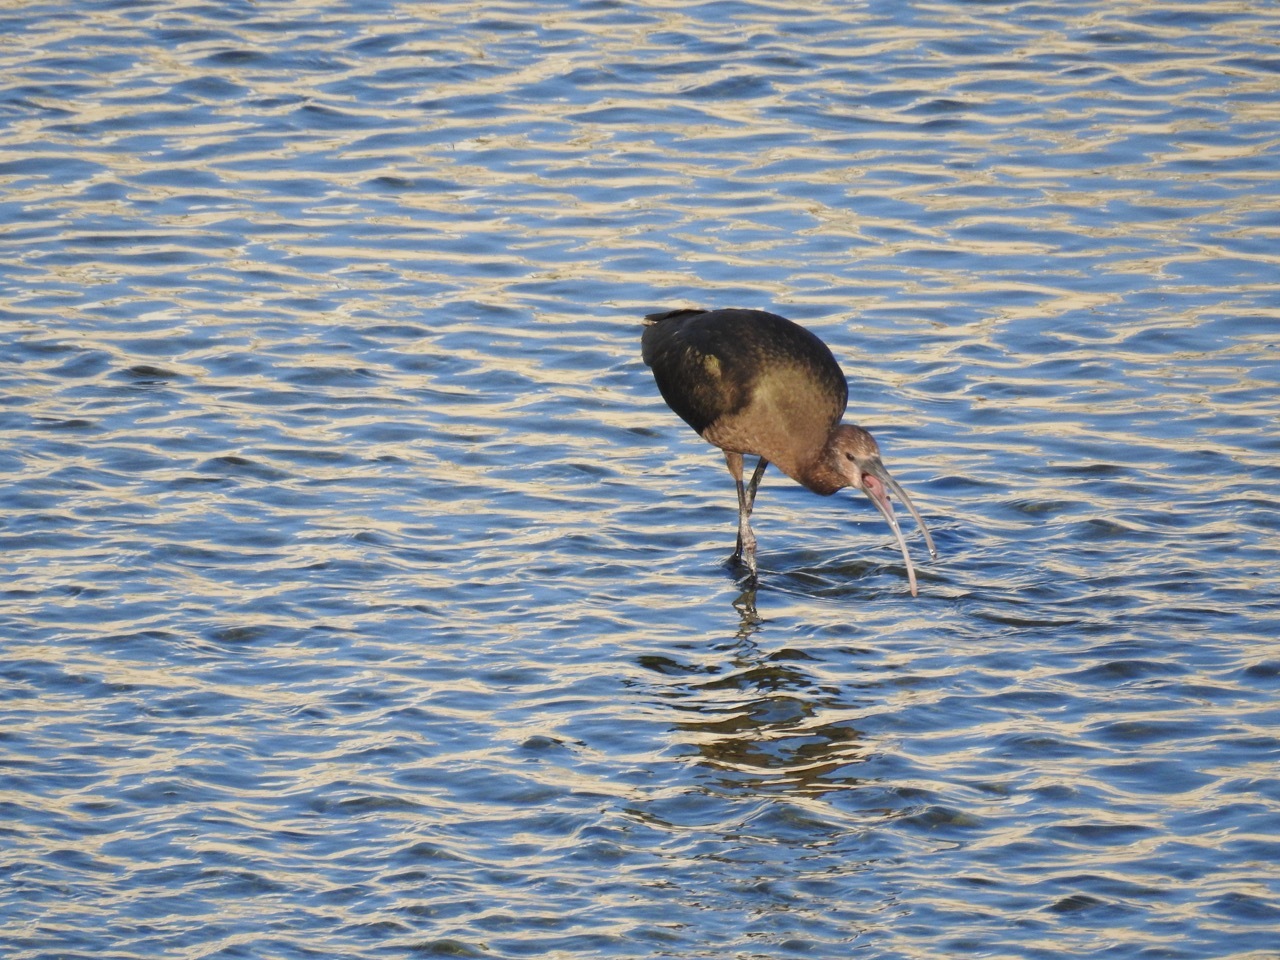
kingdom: Animalia
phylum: Chordata
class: Aves
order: Pelecaniformes
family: Threskiornithidae
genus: Plegadis
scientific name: Plegadis chihi
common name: White-faced ibis
